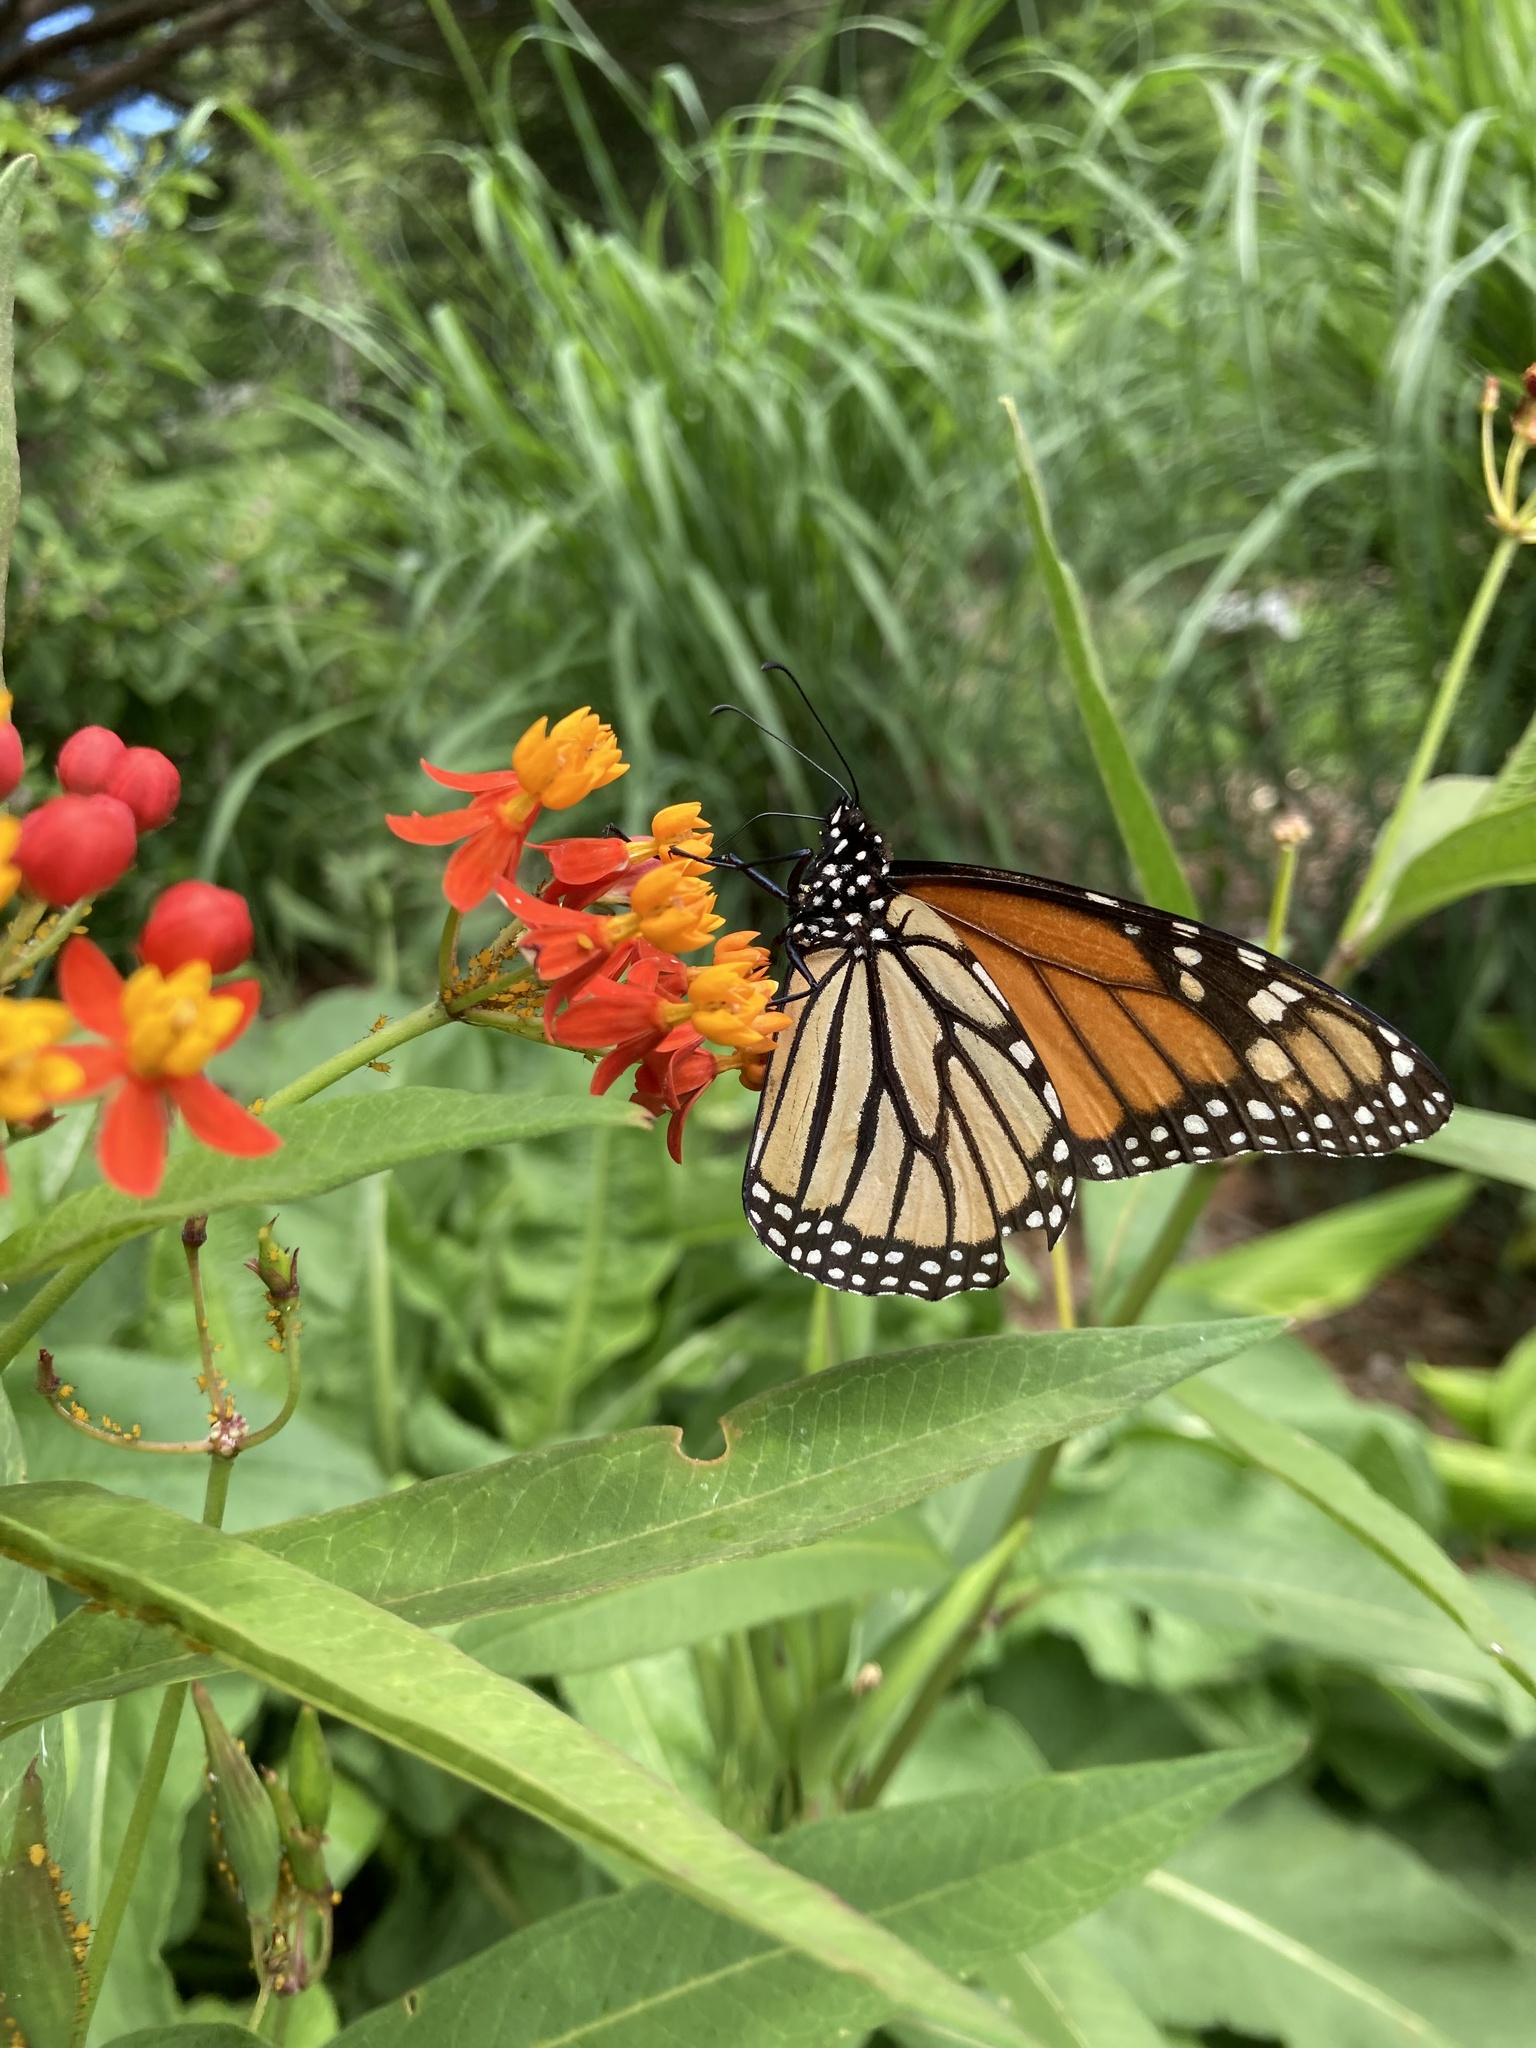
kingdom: Animalia
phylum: Arthropoda
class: Insecta
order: Lepidoptera
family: Nymphalidae
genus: Danaus
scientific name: Danaus plexippus
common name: Monarch
